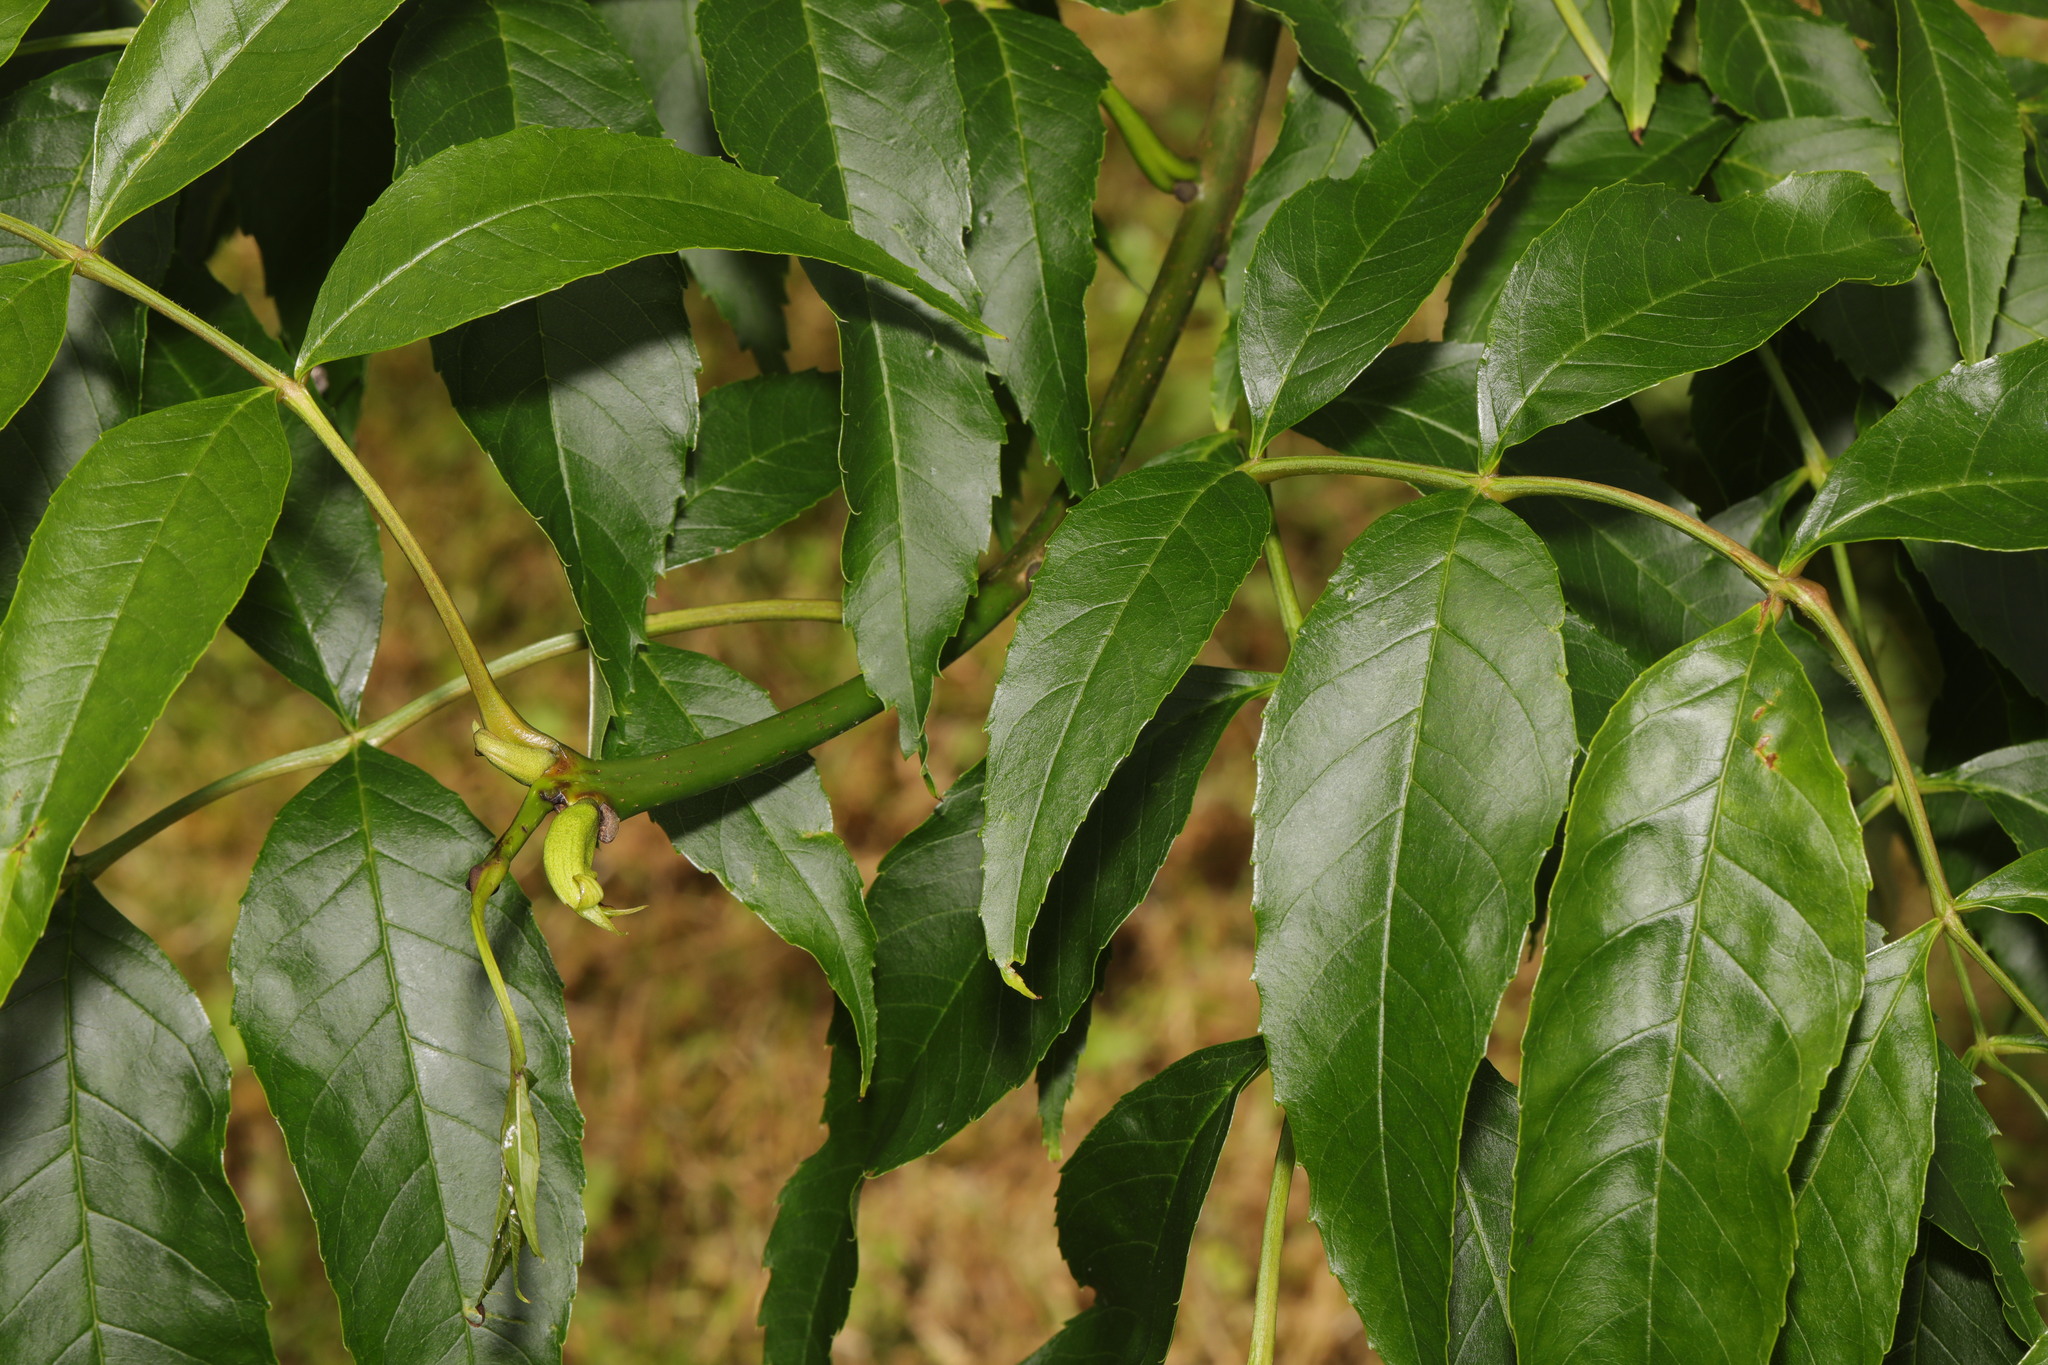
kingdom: Plantae
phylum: Tracheophyta
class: Magnoliopsida
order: Lamiales
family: Oleaceae
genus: Fraxinus
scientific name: Fraxinus excelsior
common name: European ash
